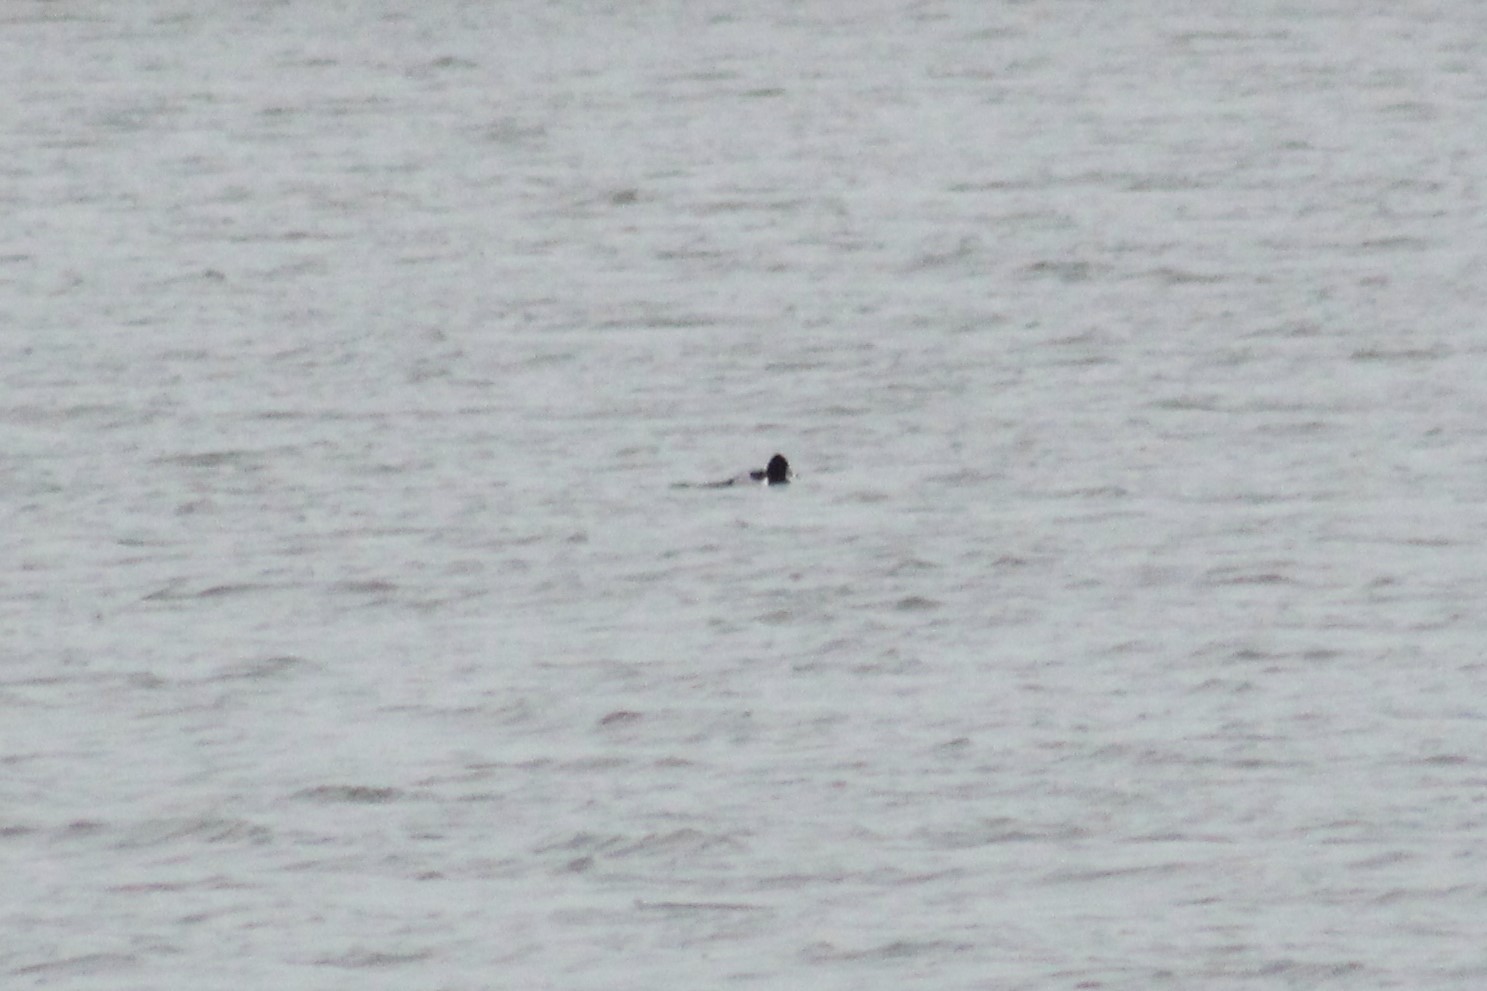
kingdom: Animalia
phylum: Chordata
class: Aves
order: Anseriformes
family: Anatidae
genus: Aythya
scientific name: Aythya collaris
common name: Ring-necked duck
